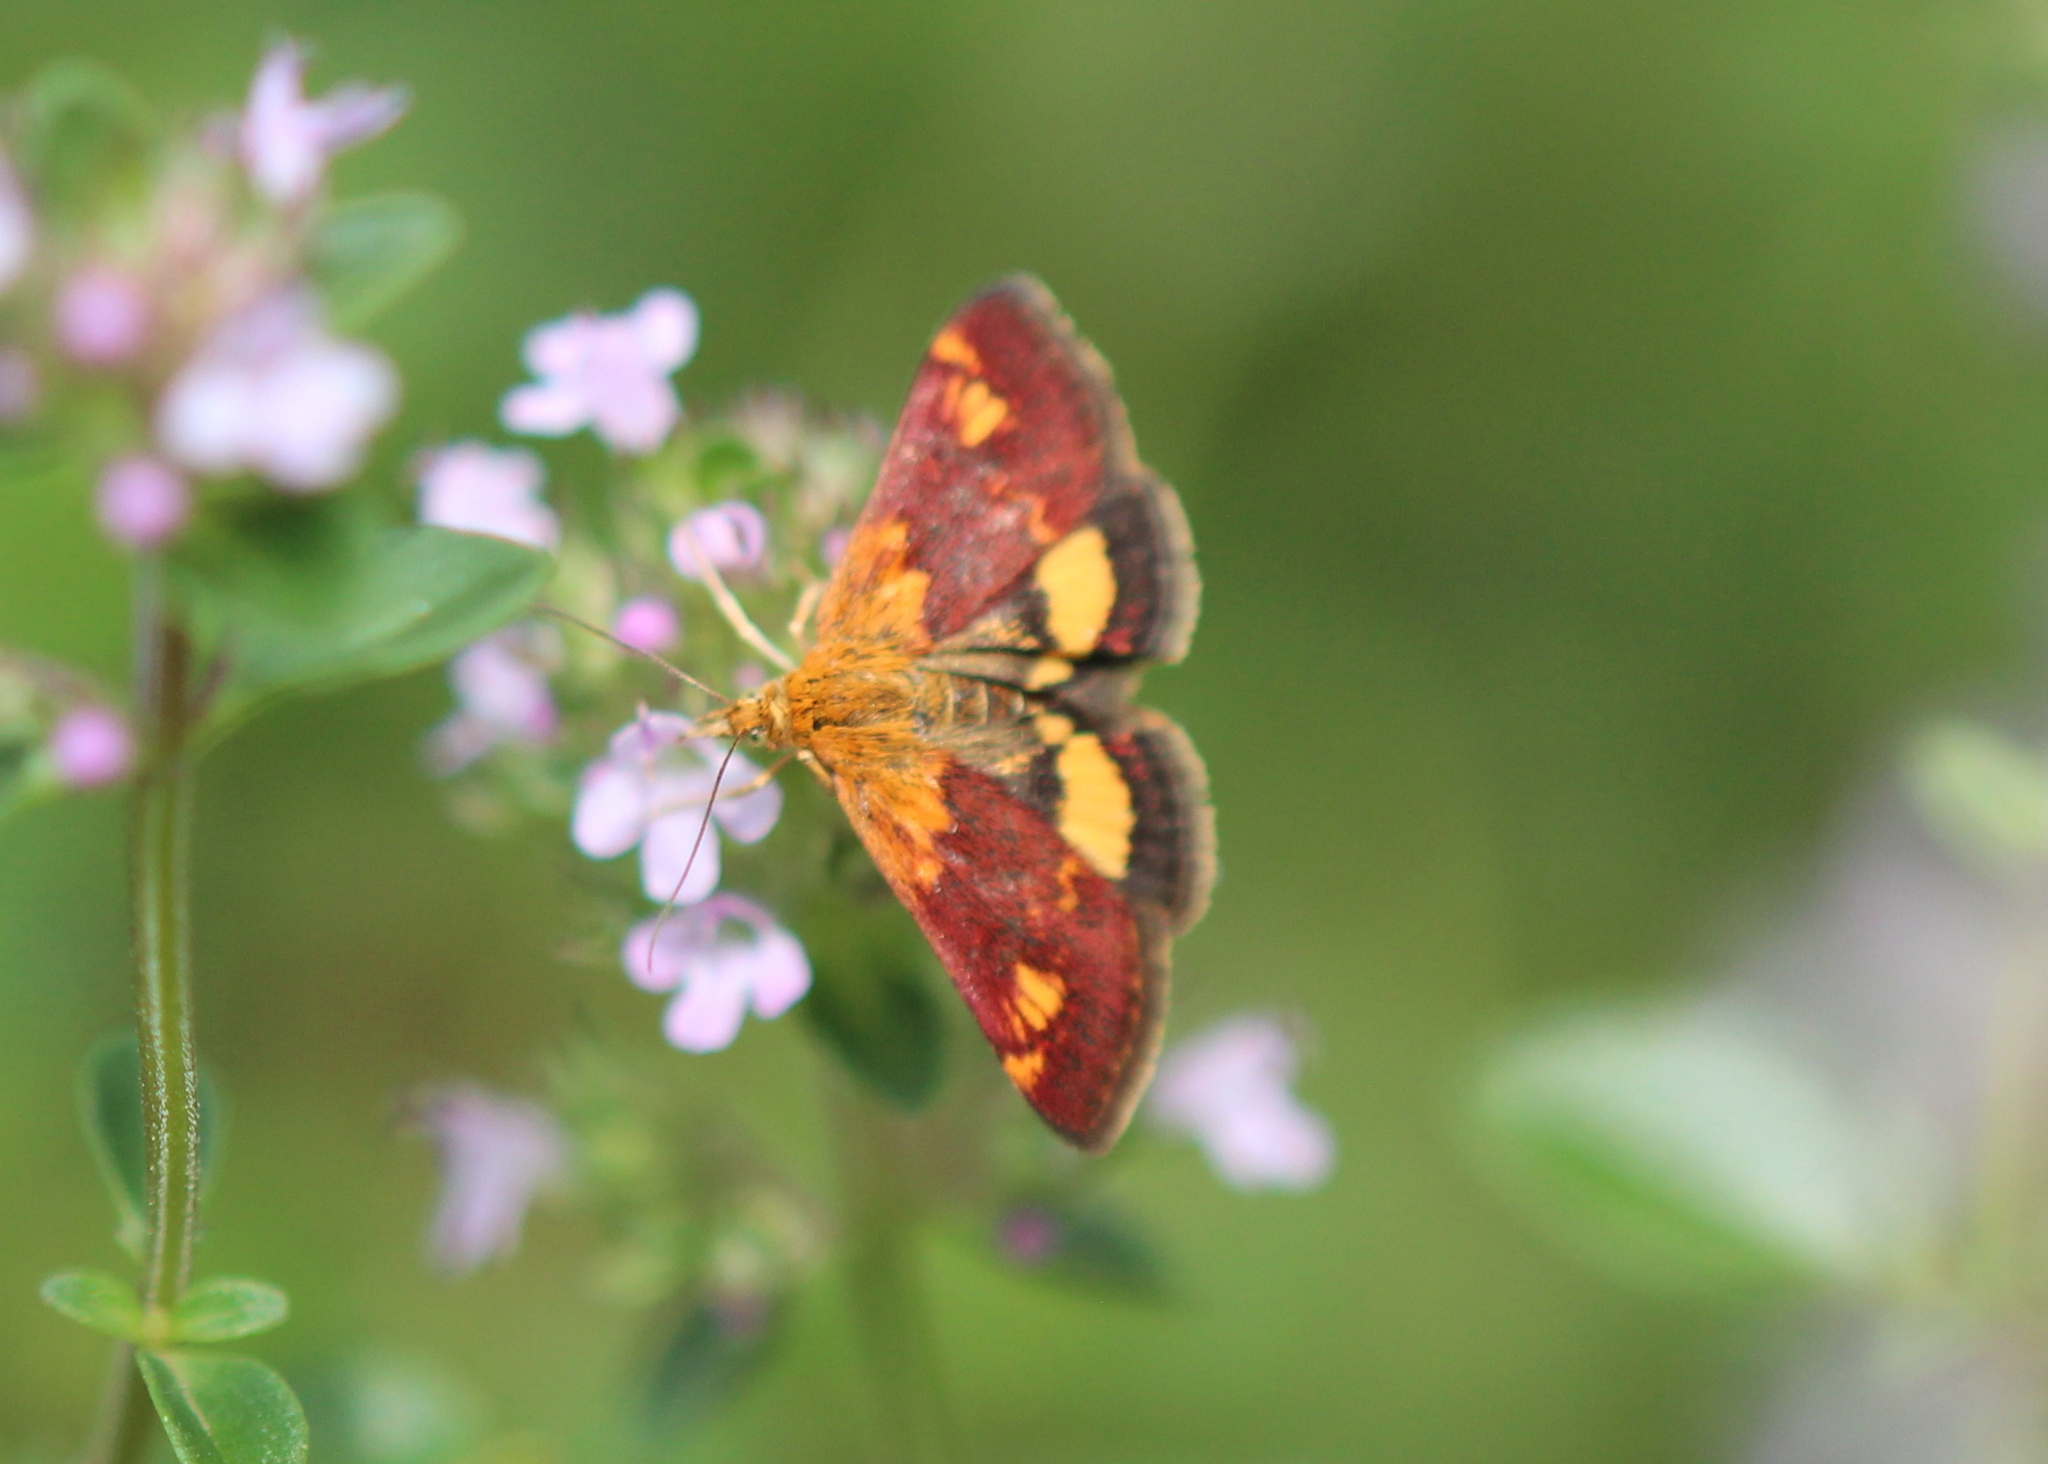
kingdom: Animalia
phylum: Arthropoda
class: Insecta
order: Lepidoptera
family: Crambidae
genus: Pyrausta
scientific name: Pyrausta orphisalis
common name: Orange mint moth
